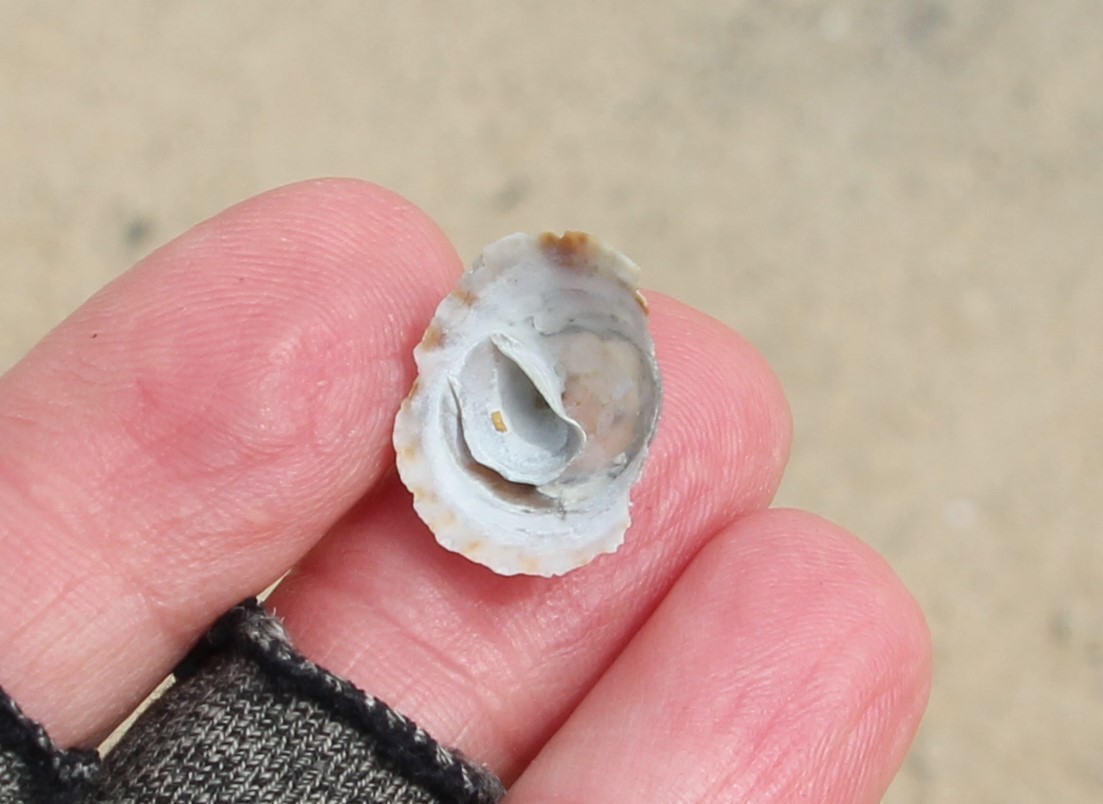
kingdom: Animalia
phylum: Mollusca
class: Gastropoda
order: Littorinimorpha
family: Calyptraeidae
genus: Crucibulum
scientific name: Crucibulum spinosum
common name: Spiny cup-and-saucer
